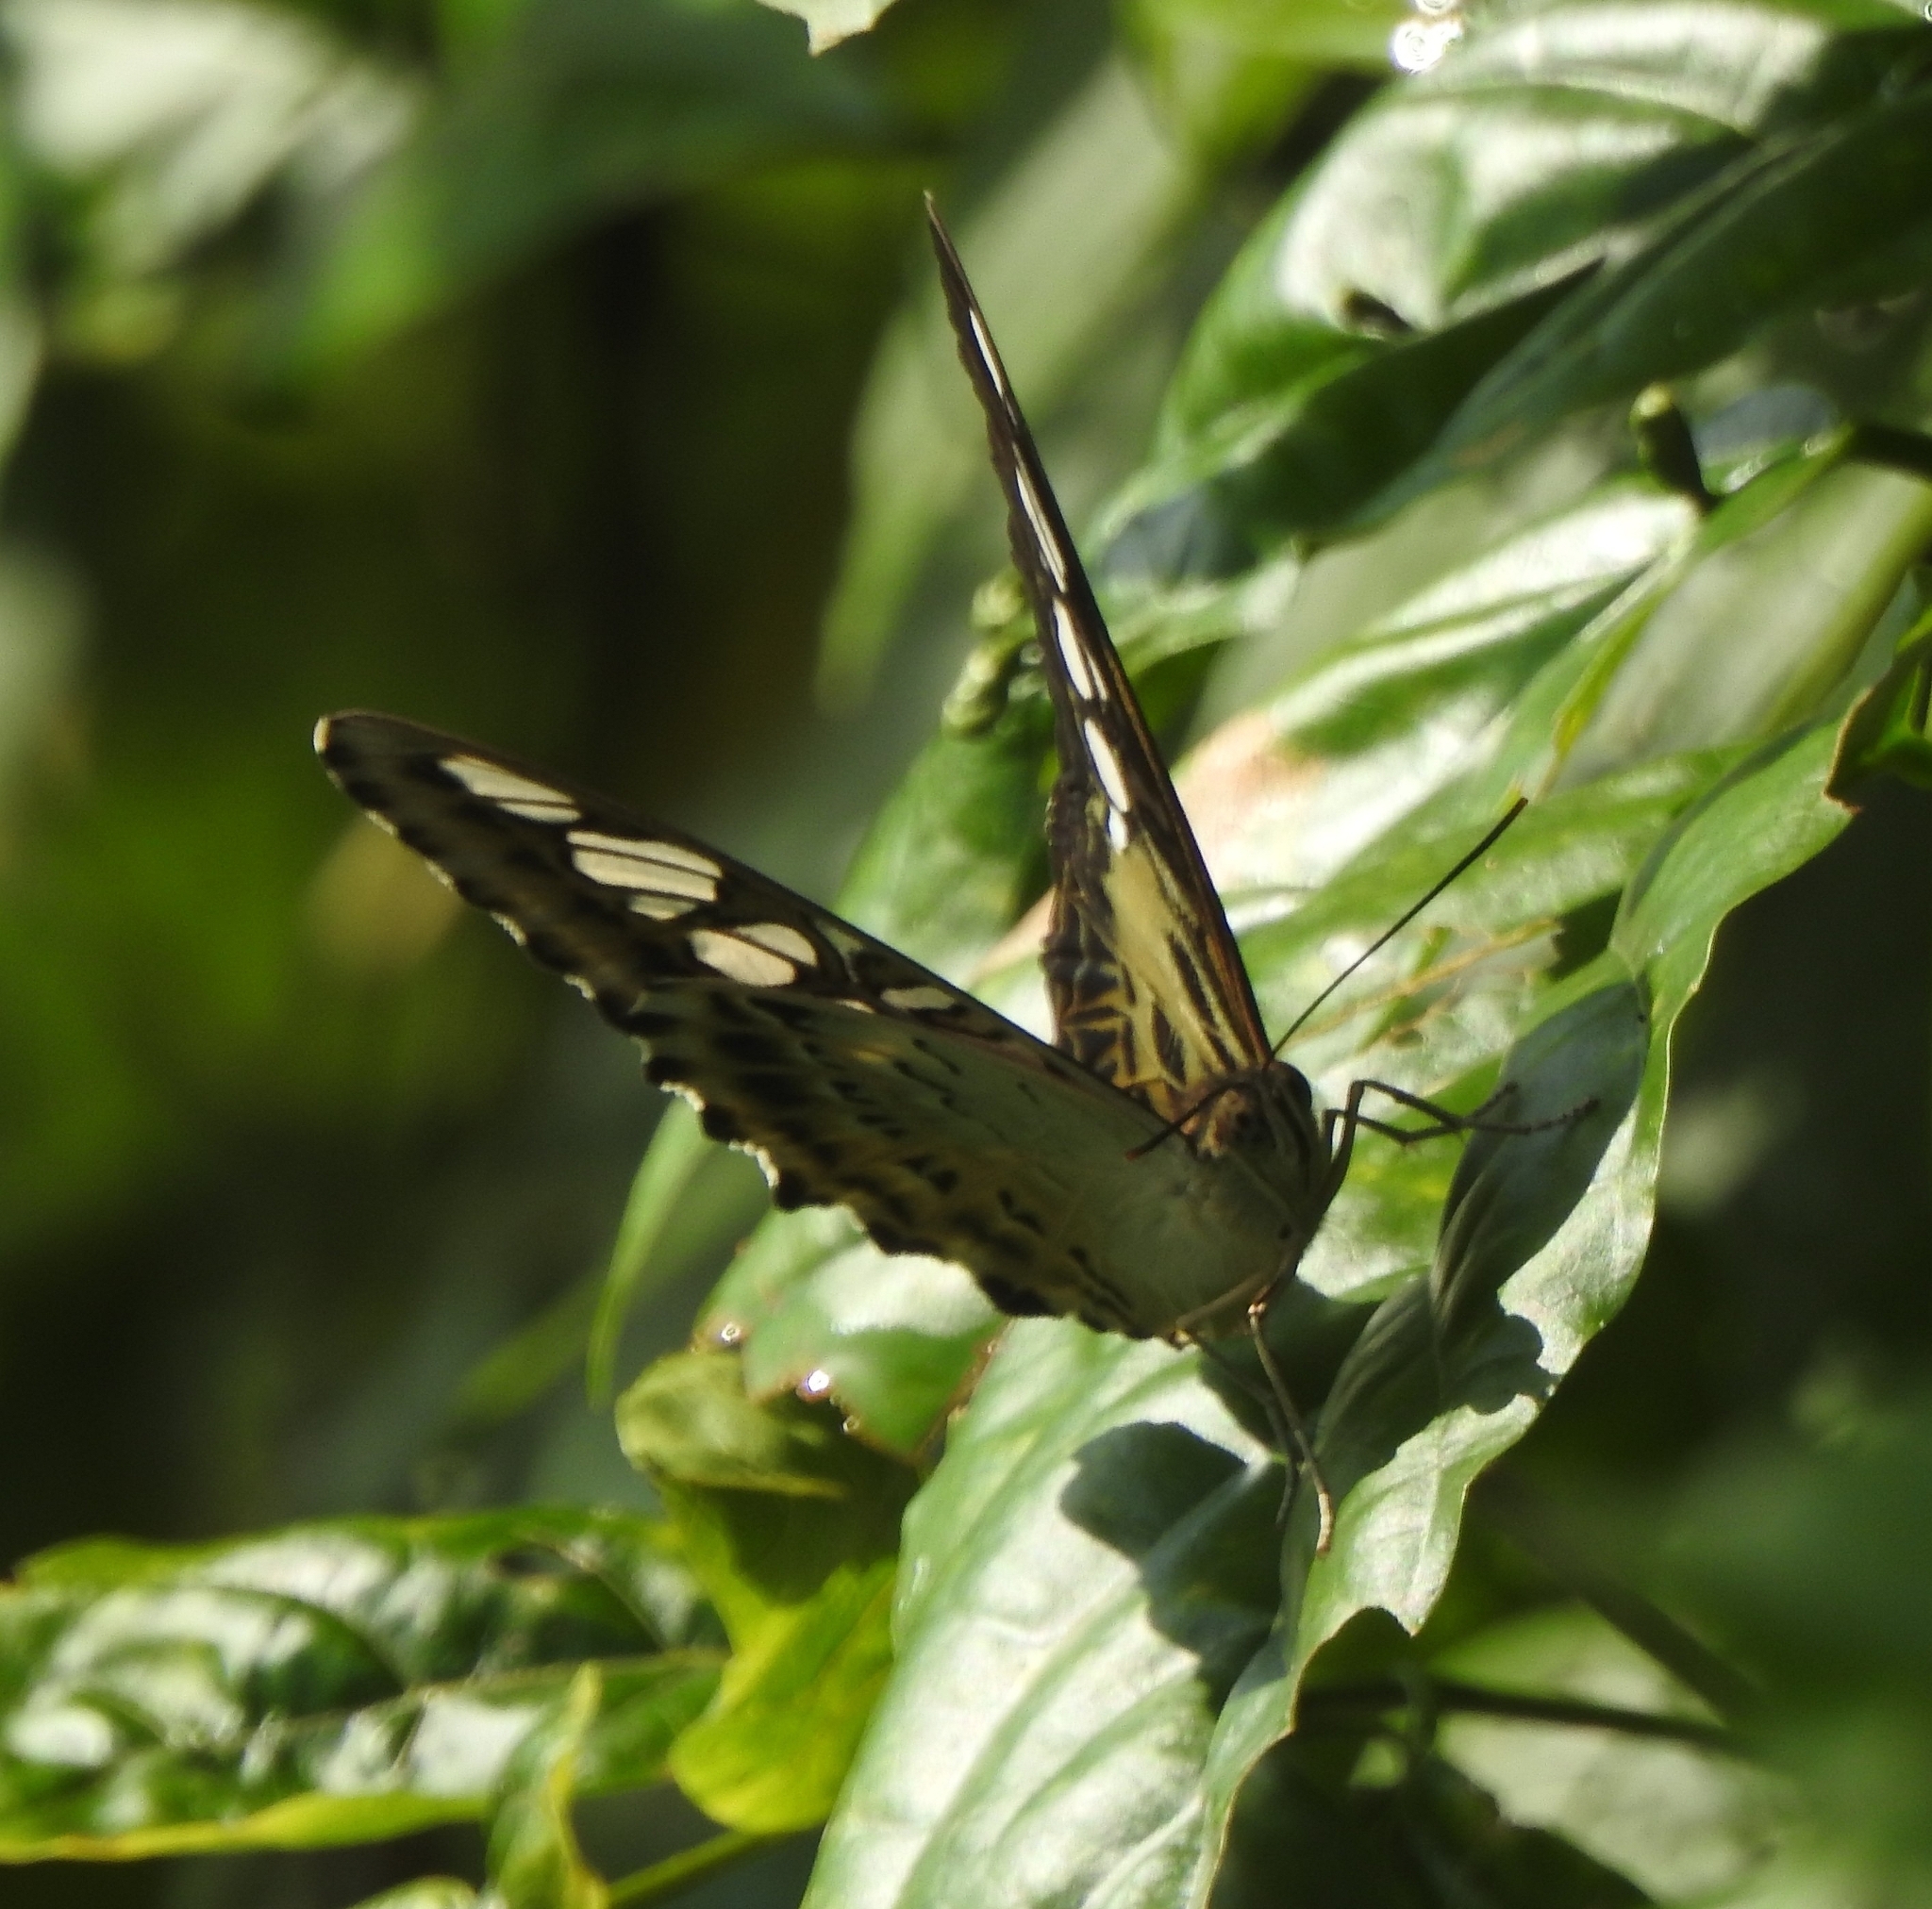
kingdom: Animalia
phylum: Arthropoda
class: Insecta
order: Lepidoptera
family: Nymphalidae
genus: Kallima
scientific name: Kallima sylvia
